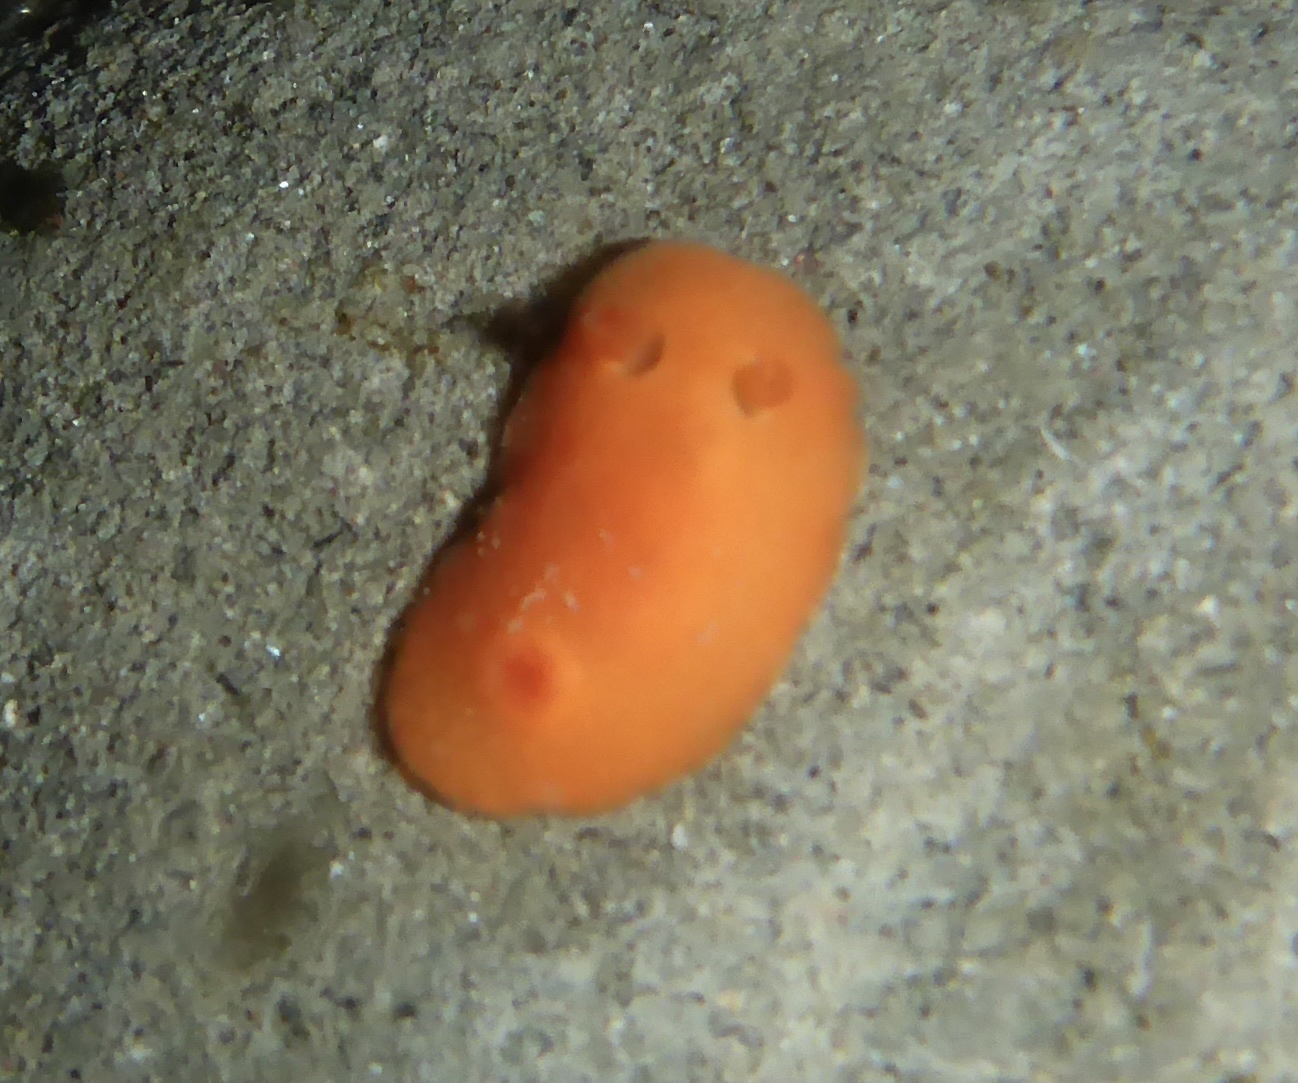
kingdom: Animalia
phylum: Mollusca
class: Gastropoda
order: Nudibranchia
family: Discodorididae
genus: Rostanga
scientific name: Rostanga pulchra
